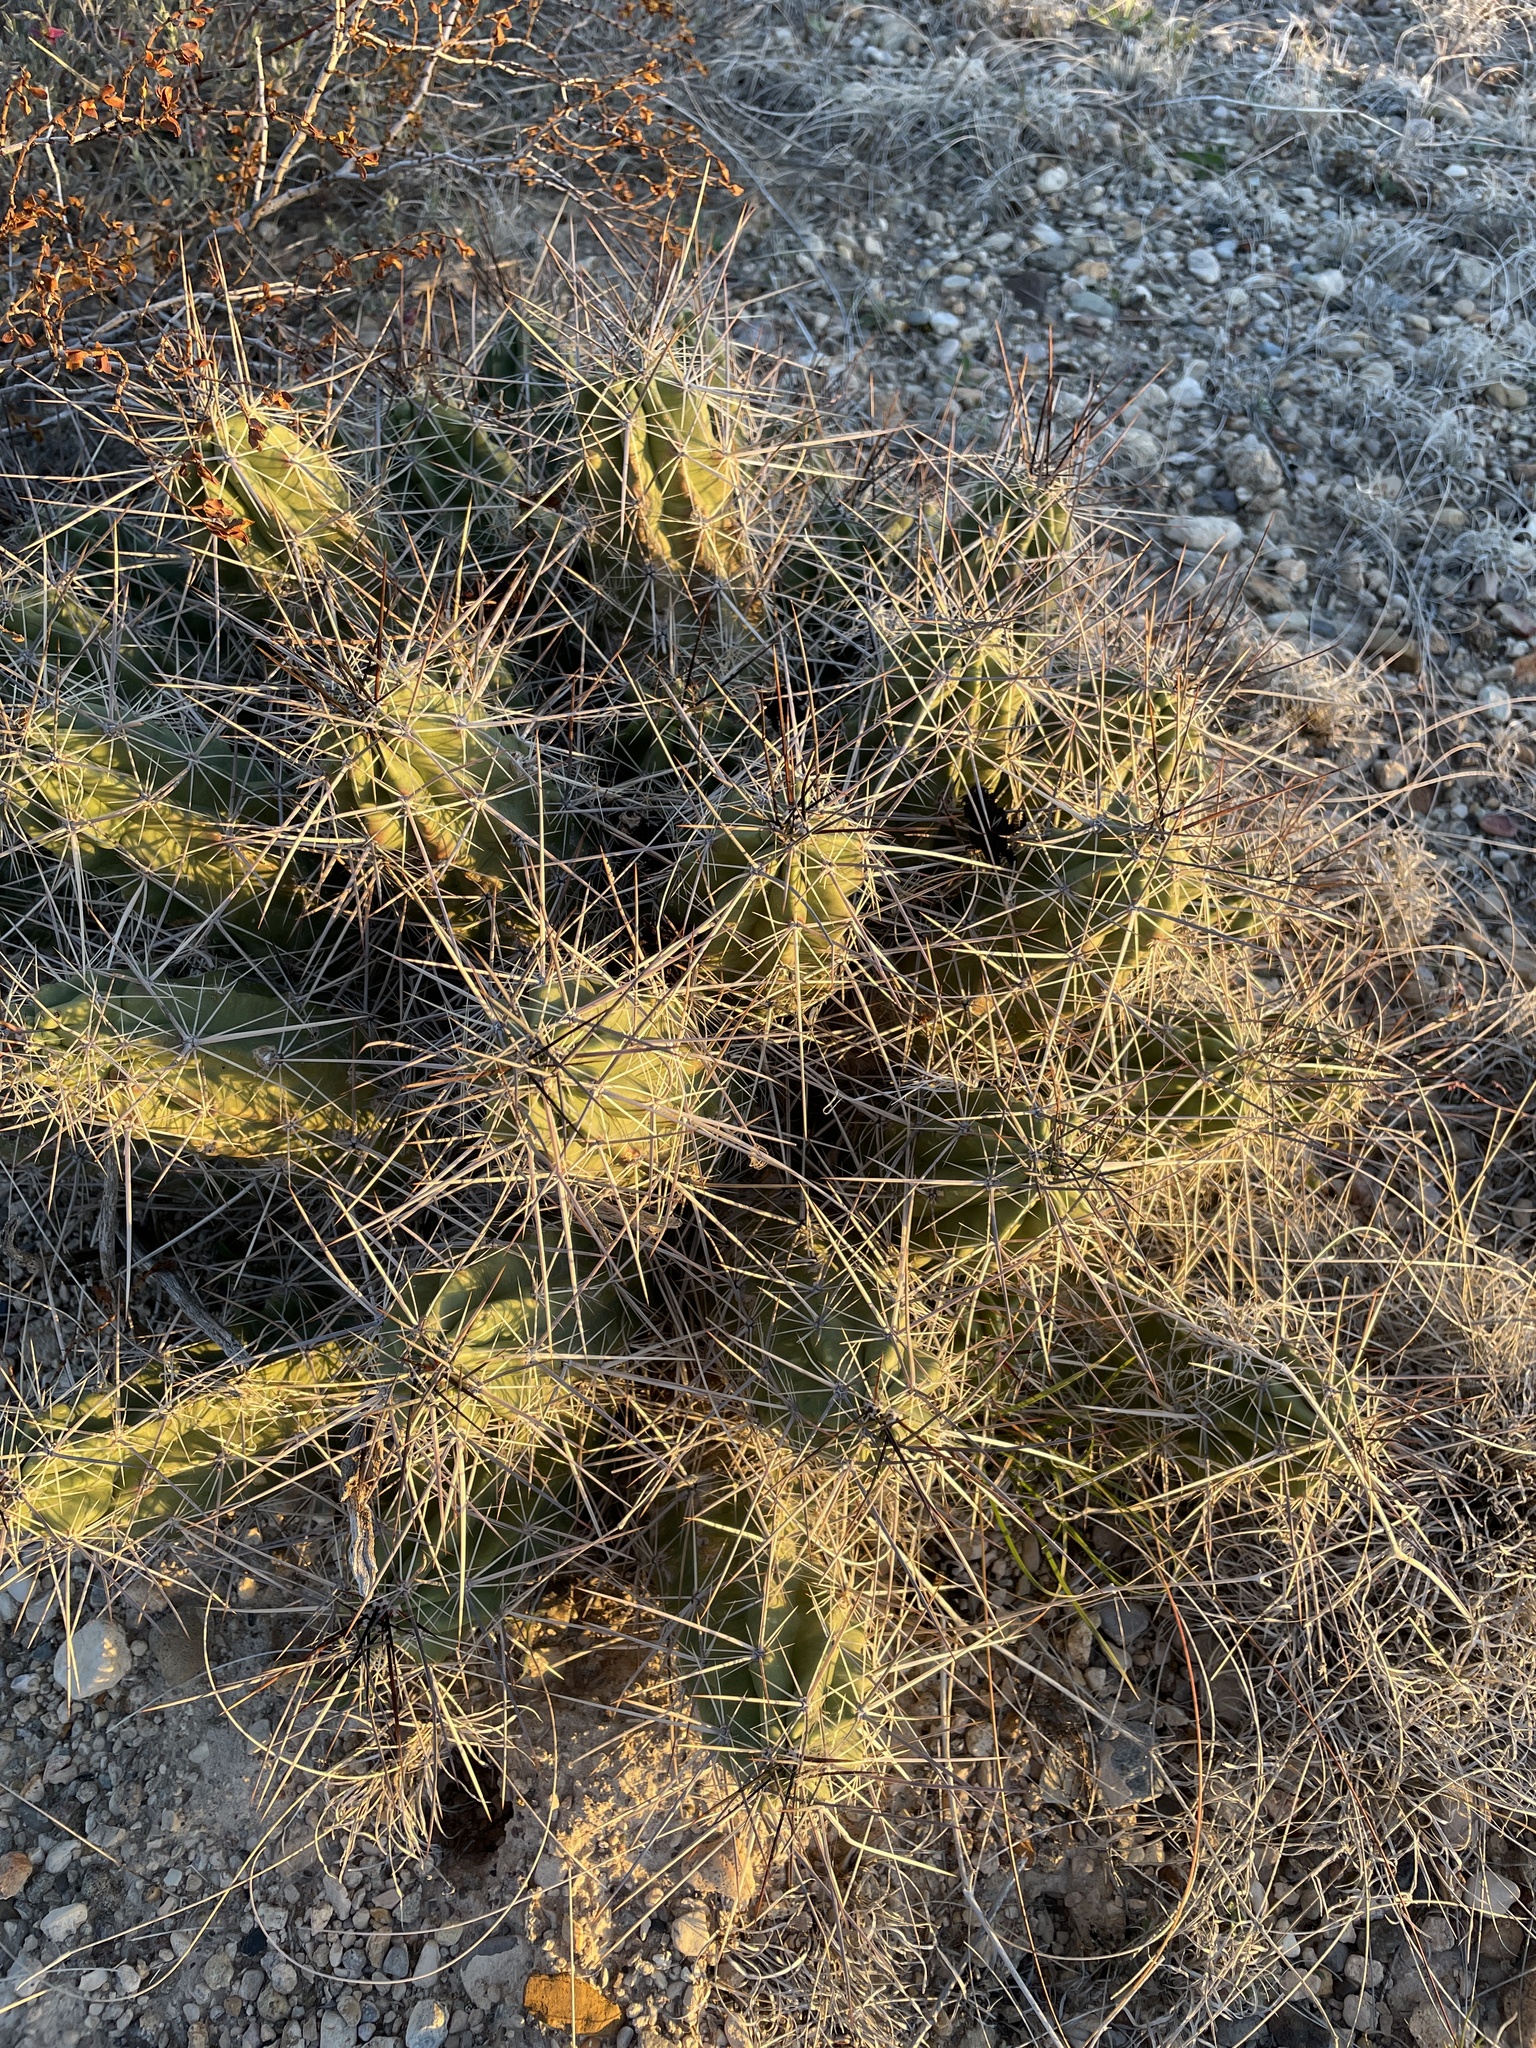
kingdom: Plantae
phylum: Tracheophyta
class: Magnoliopsida
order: Caryophyllales
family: Cactaceae
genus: Echinocereus
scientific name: Echinocereus enneacanthus
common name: Pitaya
